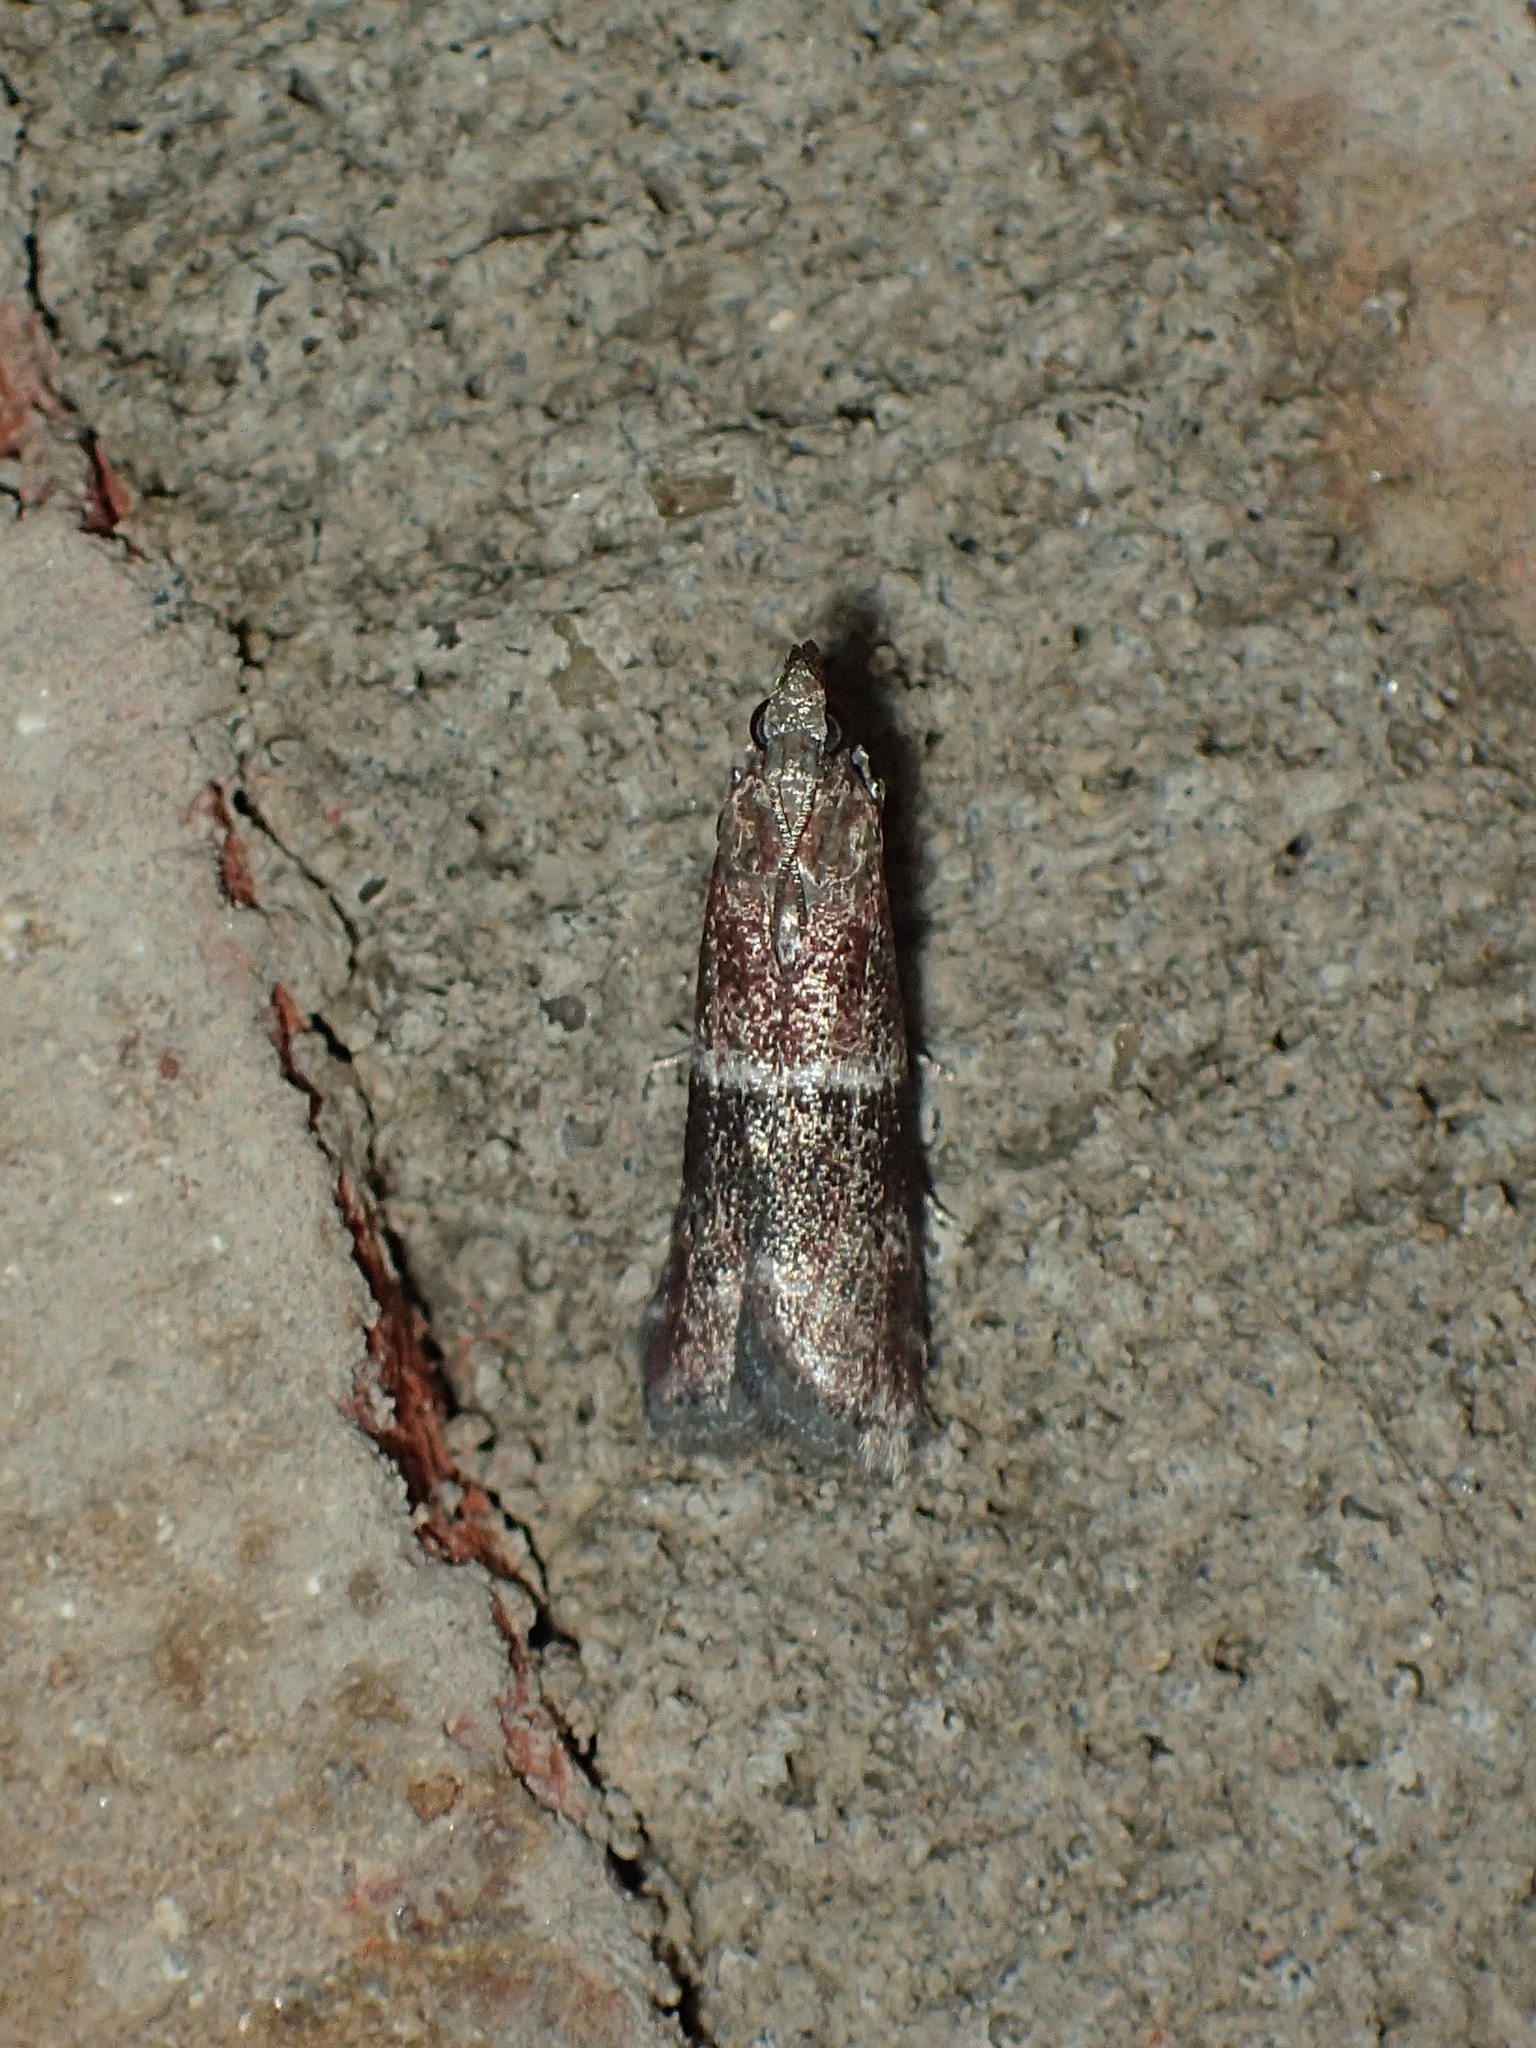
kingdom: Animalia
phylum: Arthropoda
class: Insecta
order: Lepidoptera
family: Pyralidae
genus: Moodna
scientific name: Moodna ostrinella
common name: Darker moodna moth
